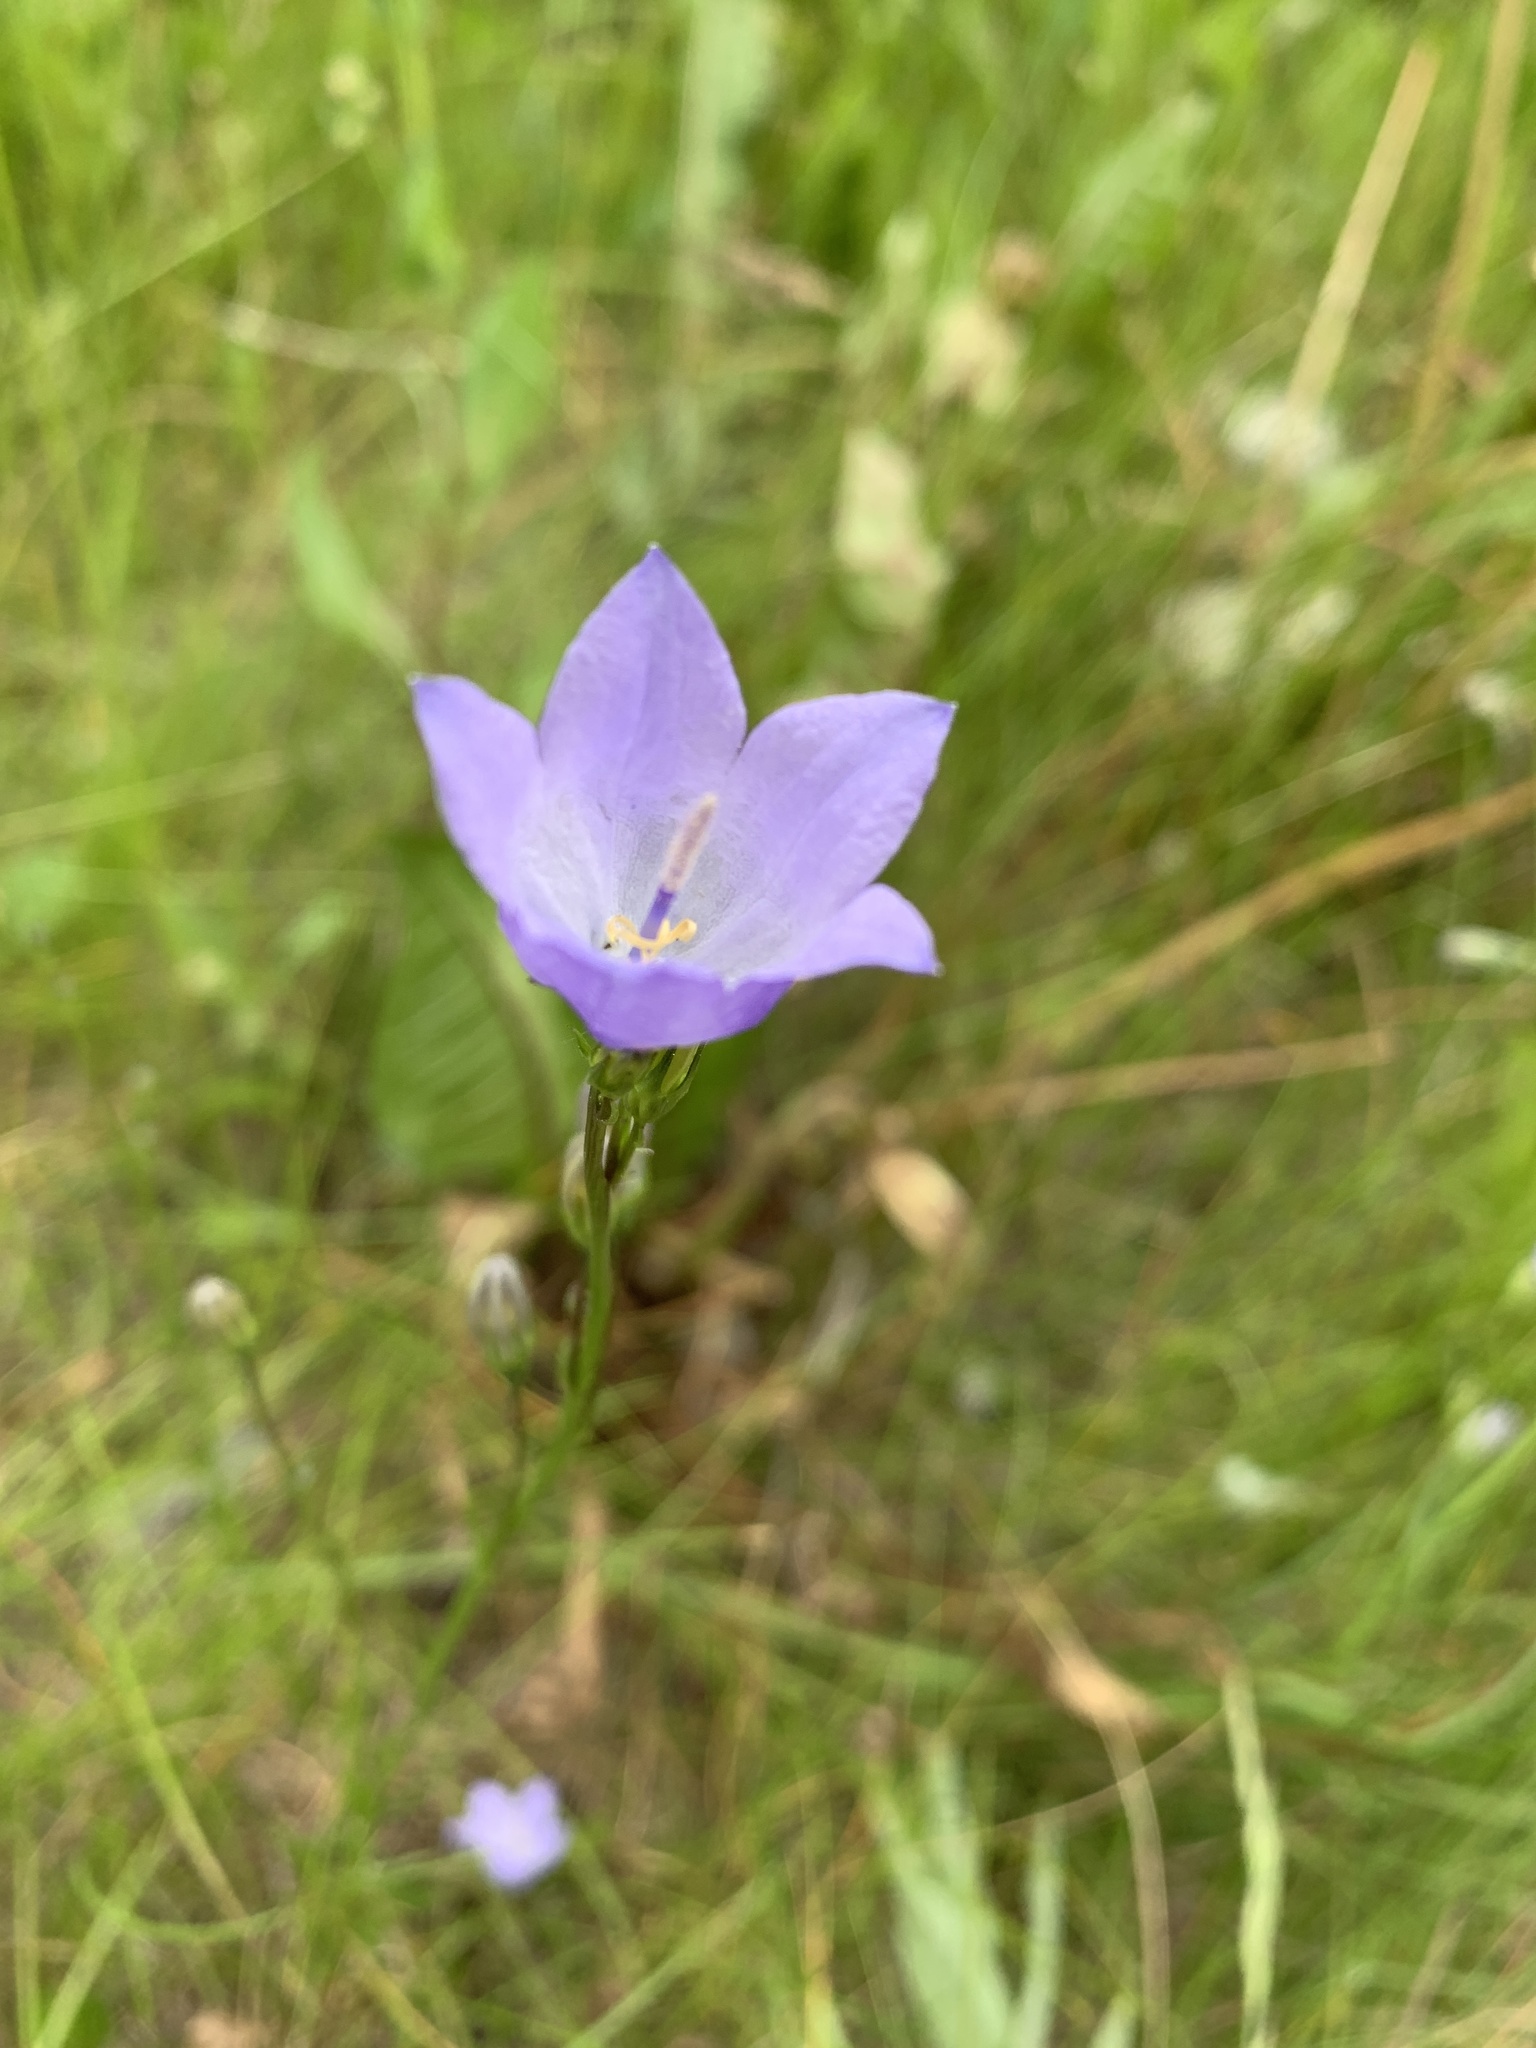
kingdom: Plantae
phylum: Tracheophyta
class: Magnoliopsida
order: Asterales
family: Campanulaceae
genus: Campanula
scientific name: Campanula alaskana
